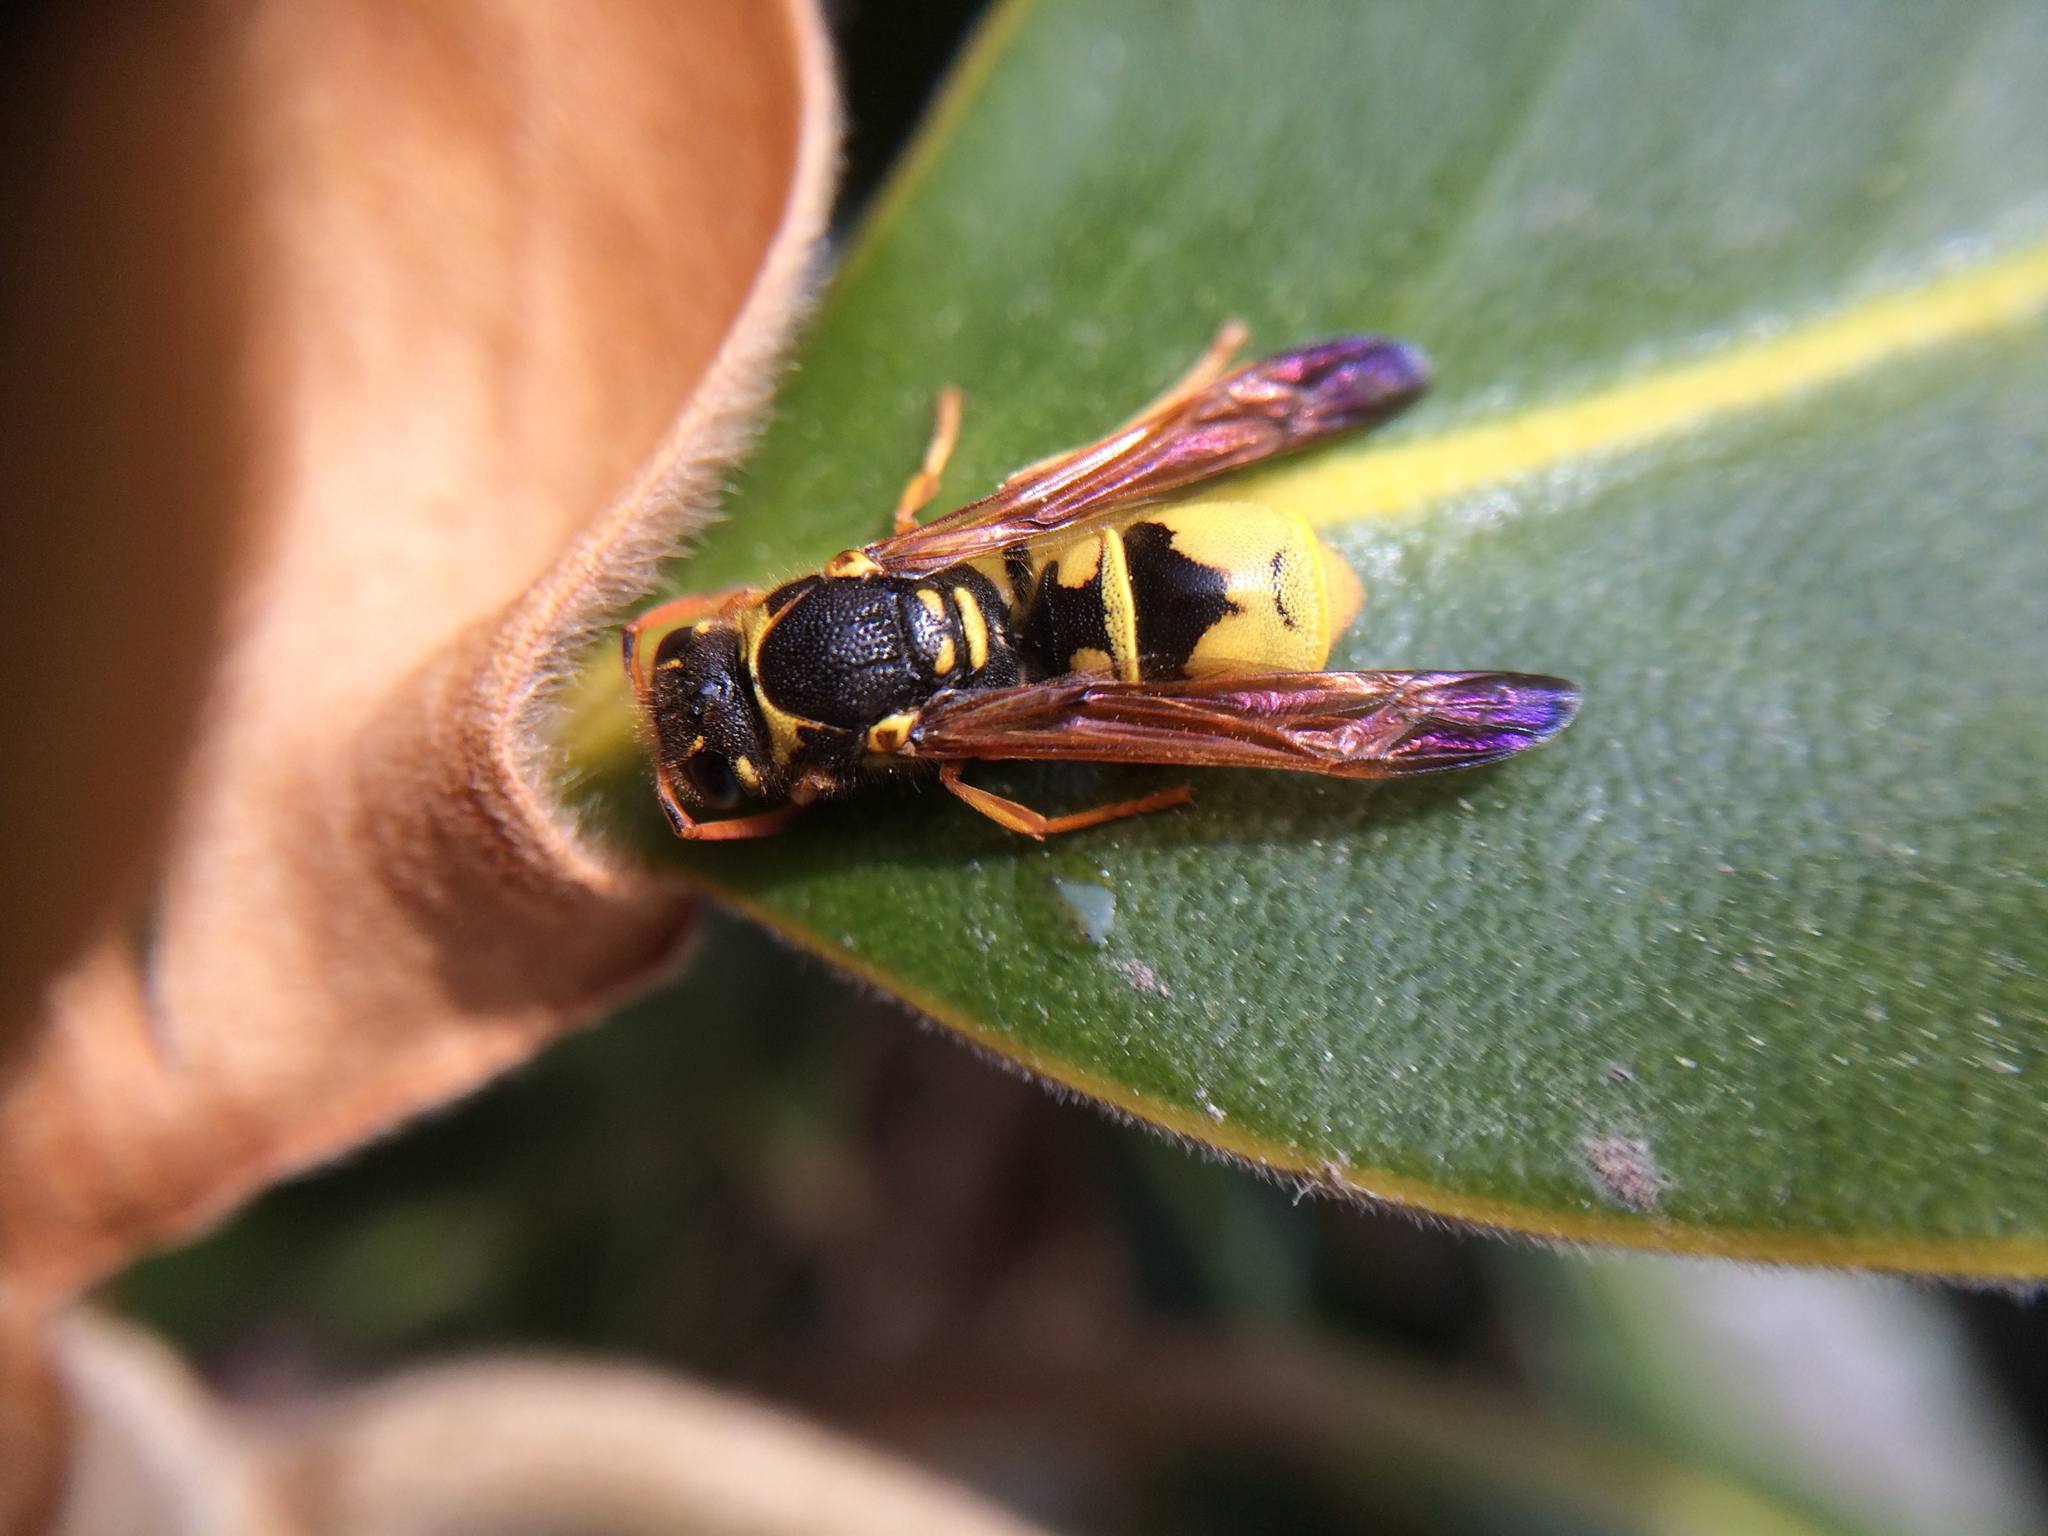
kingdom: Animalia
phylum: Arthropoda
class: Insecta
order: Hymenoptera
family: Vespidae
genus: Ancistrocerus
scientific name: Ancistrocerus tuberculocephalus
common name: Vespid wasp
